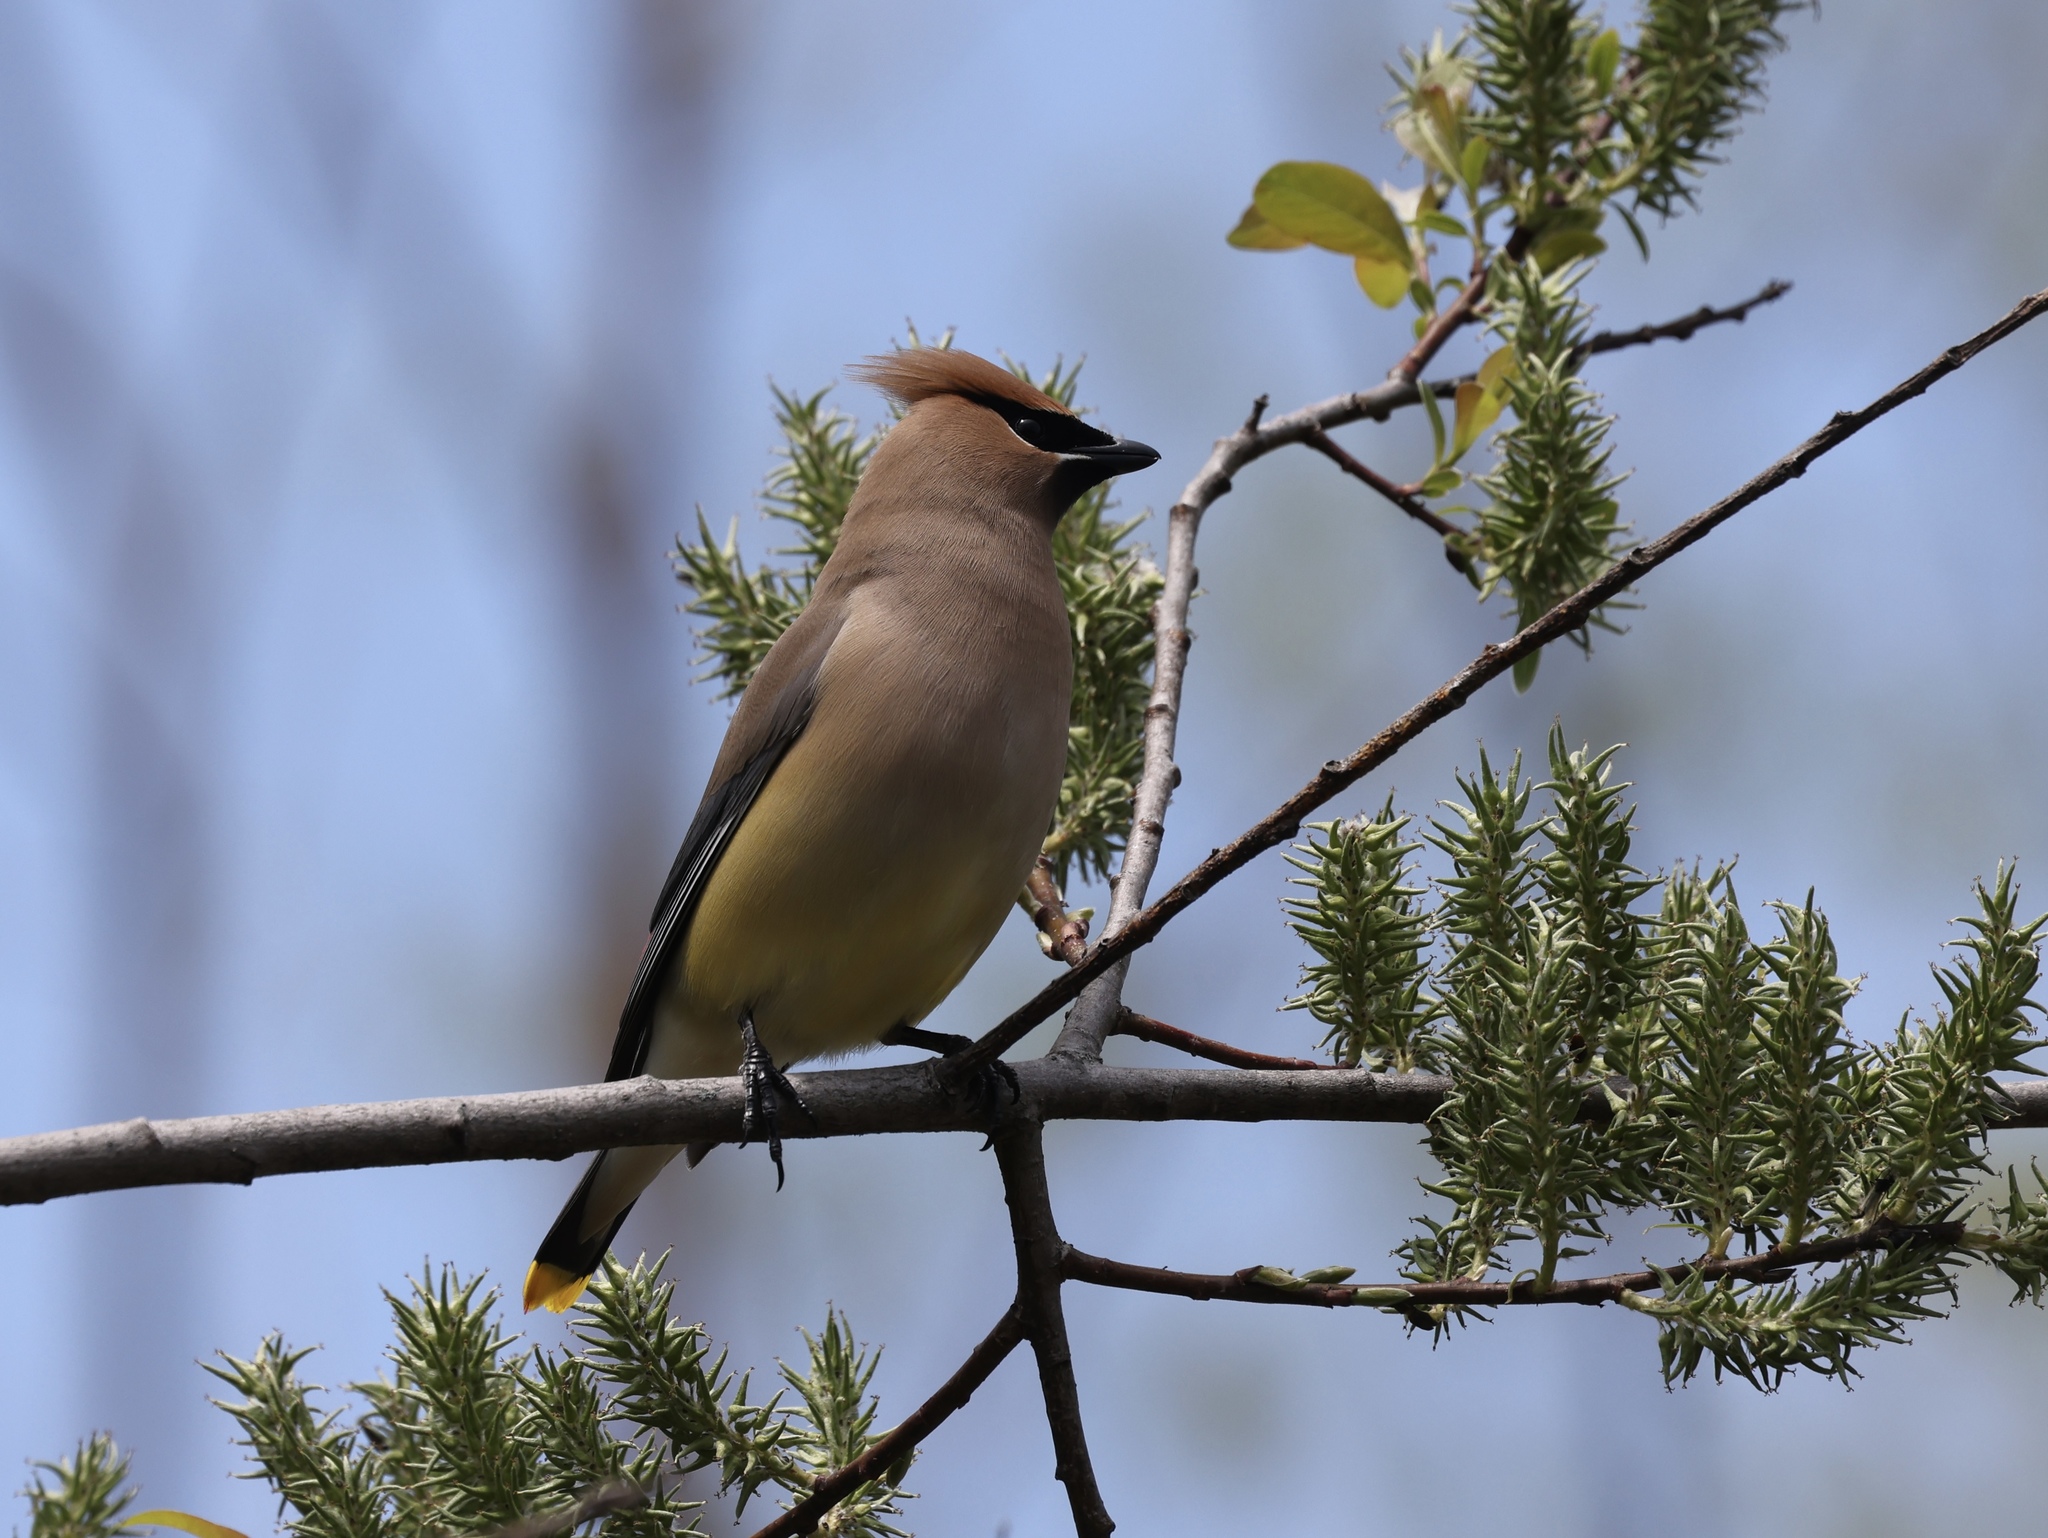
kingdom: Animalia
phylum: Chordata
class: Aves
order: Passeriformes
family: Bombycillidae
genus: Bombycilla
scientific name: Bombycilla cedrorum
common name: Cedar waxwing
